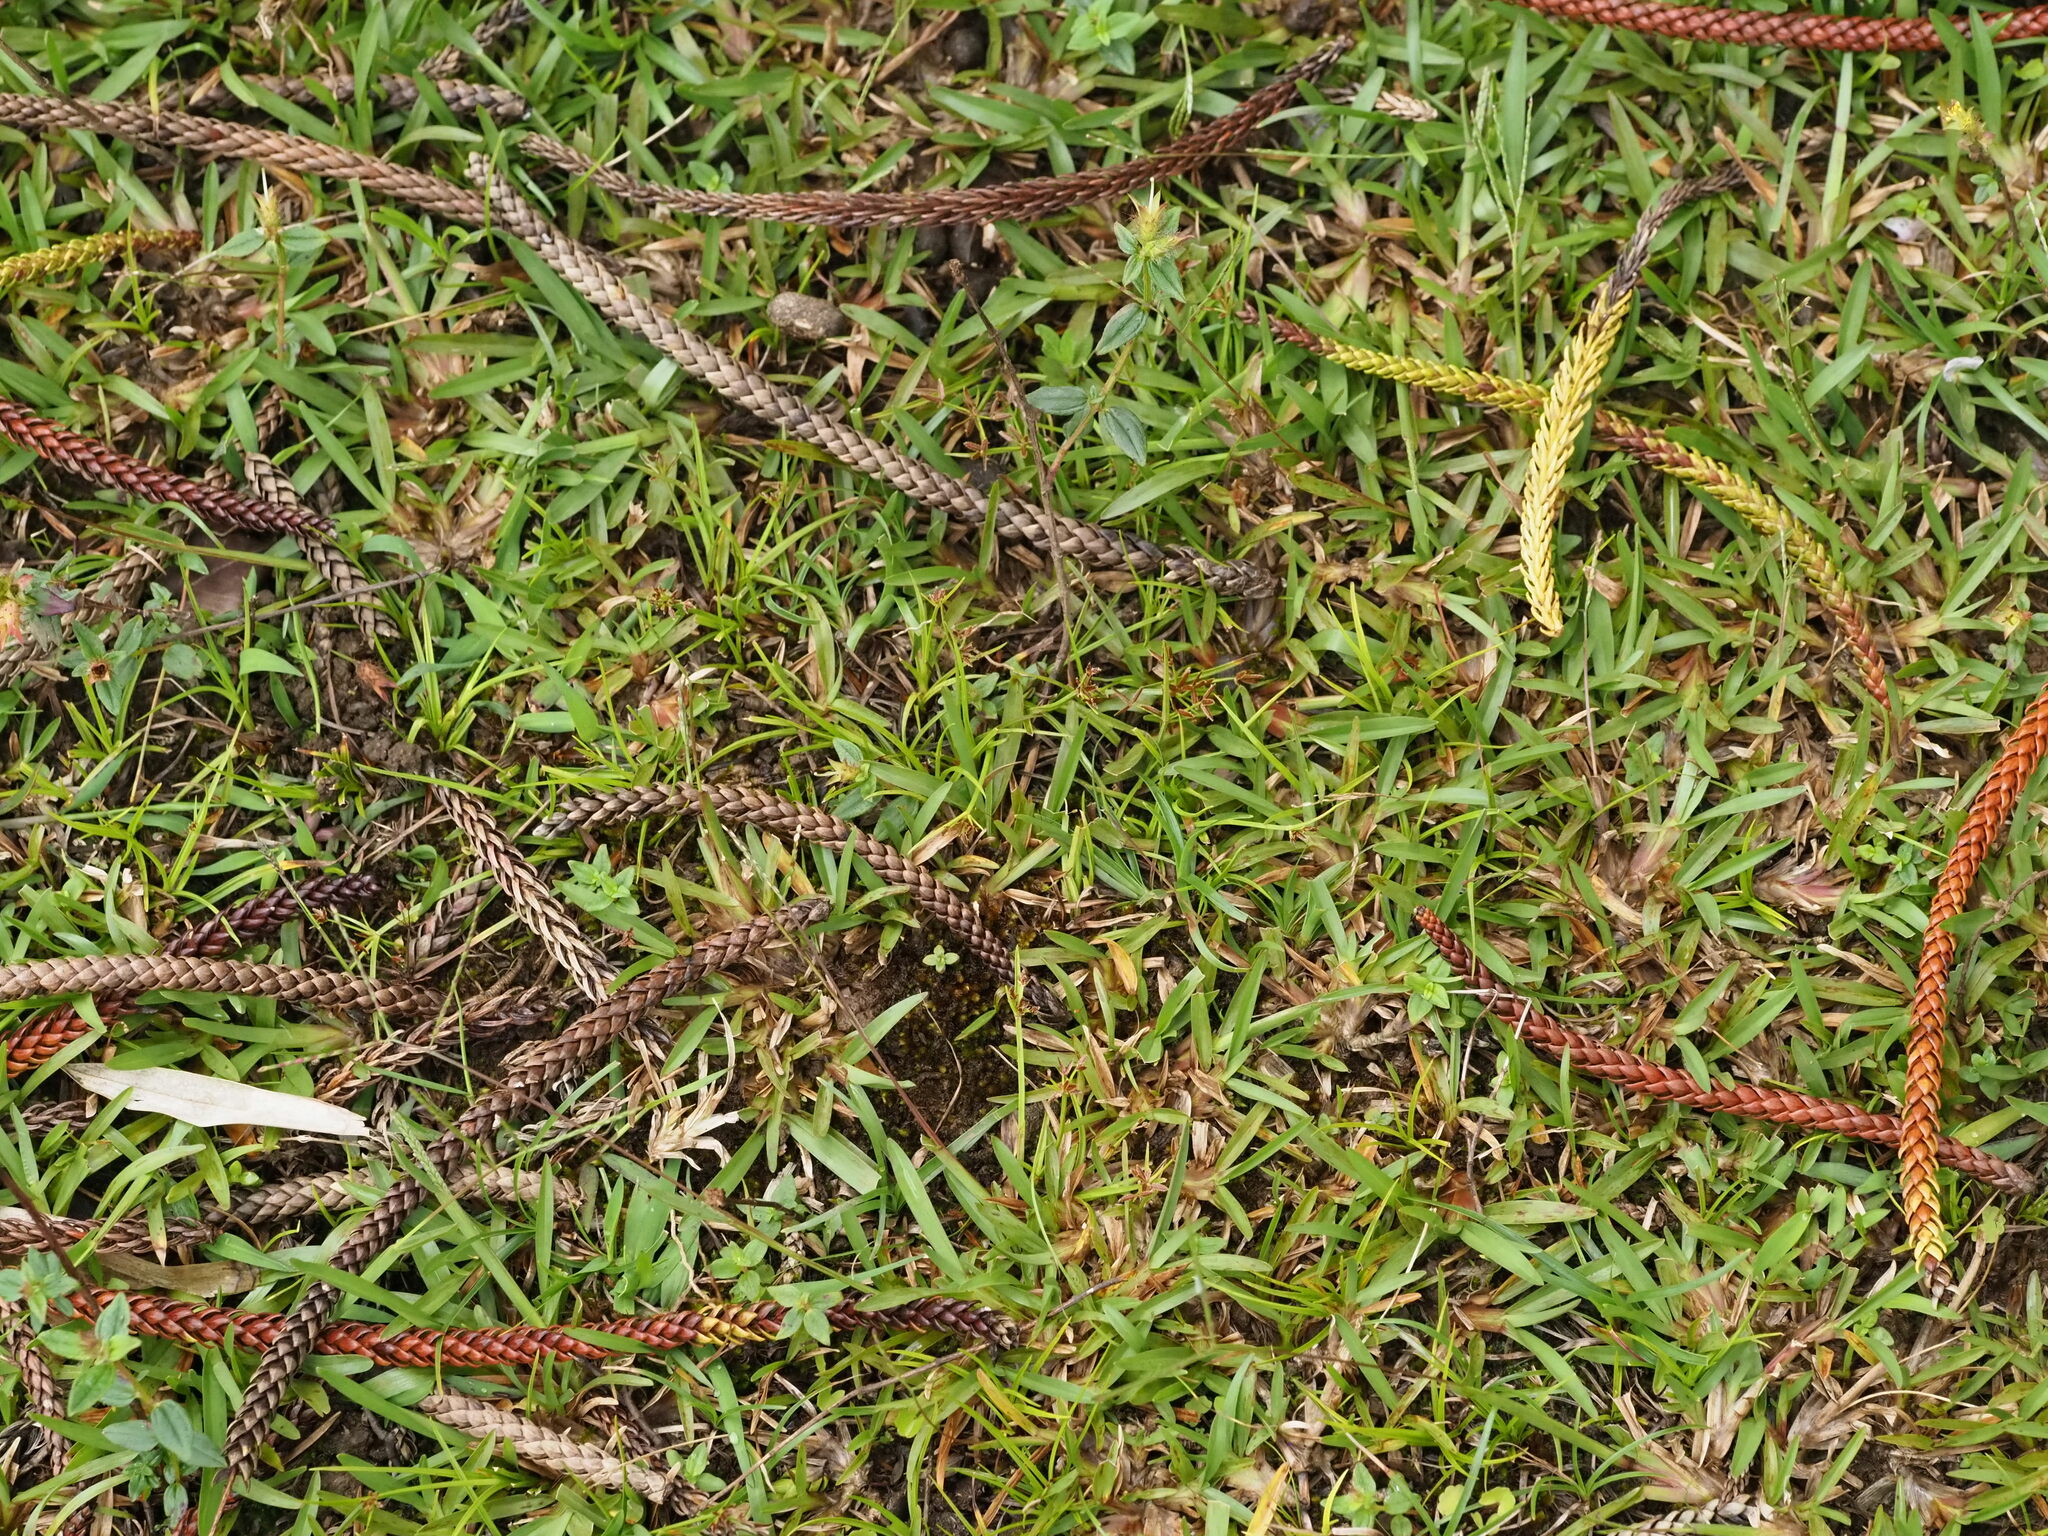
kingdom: Plantae
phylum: Tracheophyta
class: Liliopsida
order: Poales
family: Poaceae
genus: Axonopus
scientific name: Axonopus fissifolius
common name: Common carpetgrass
